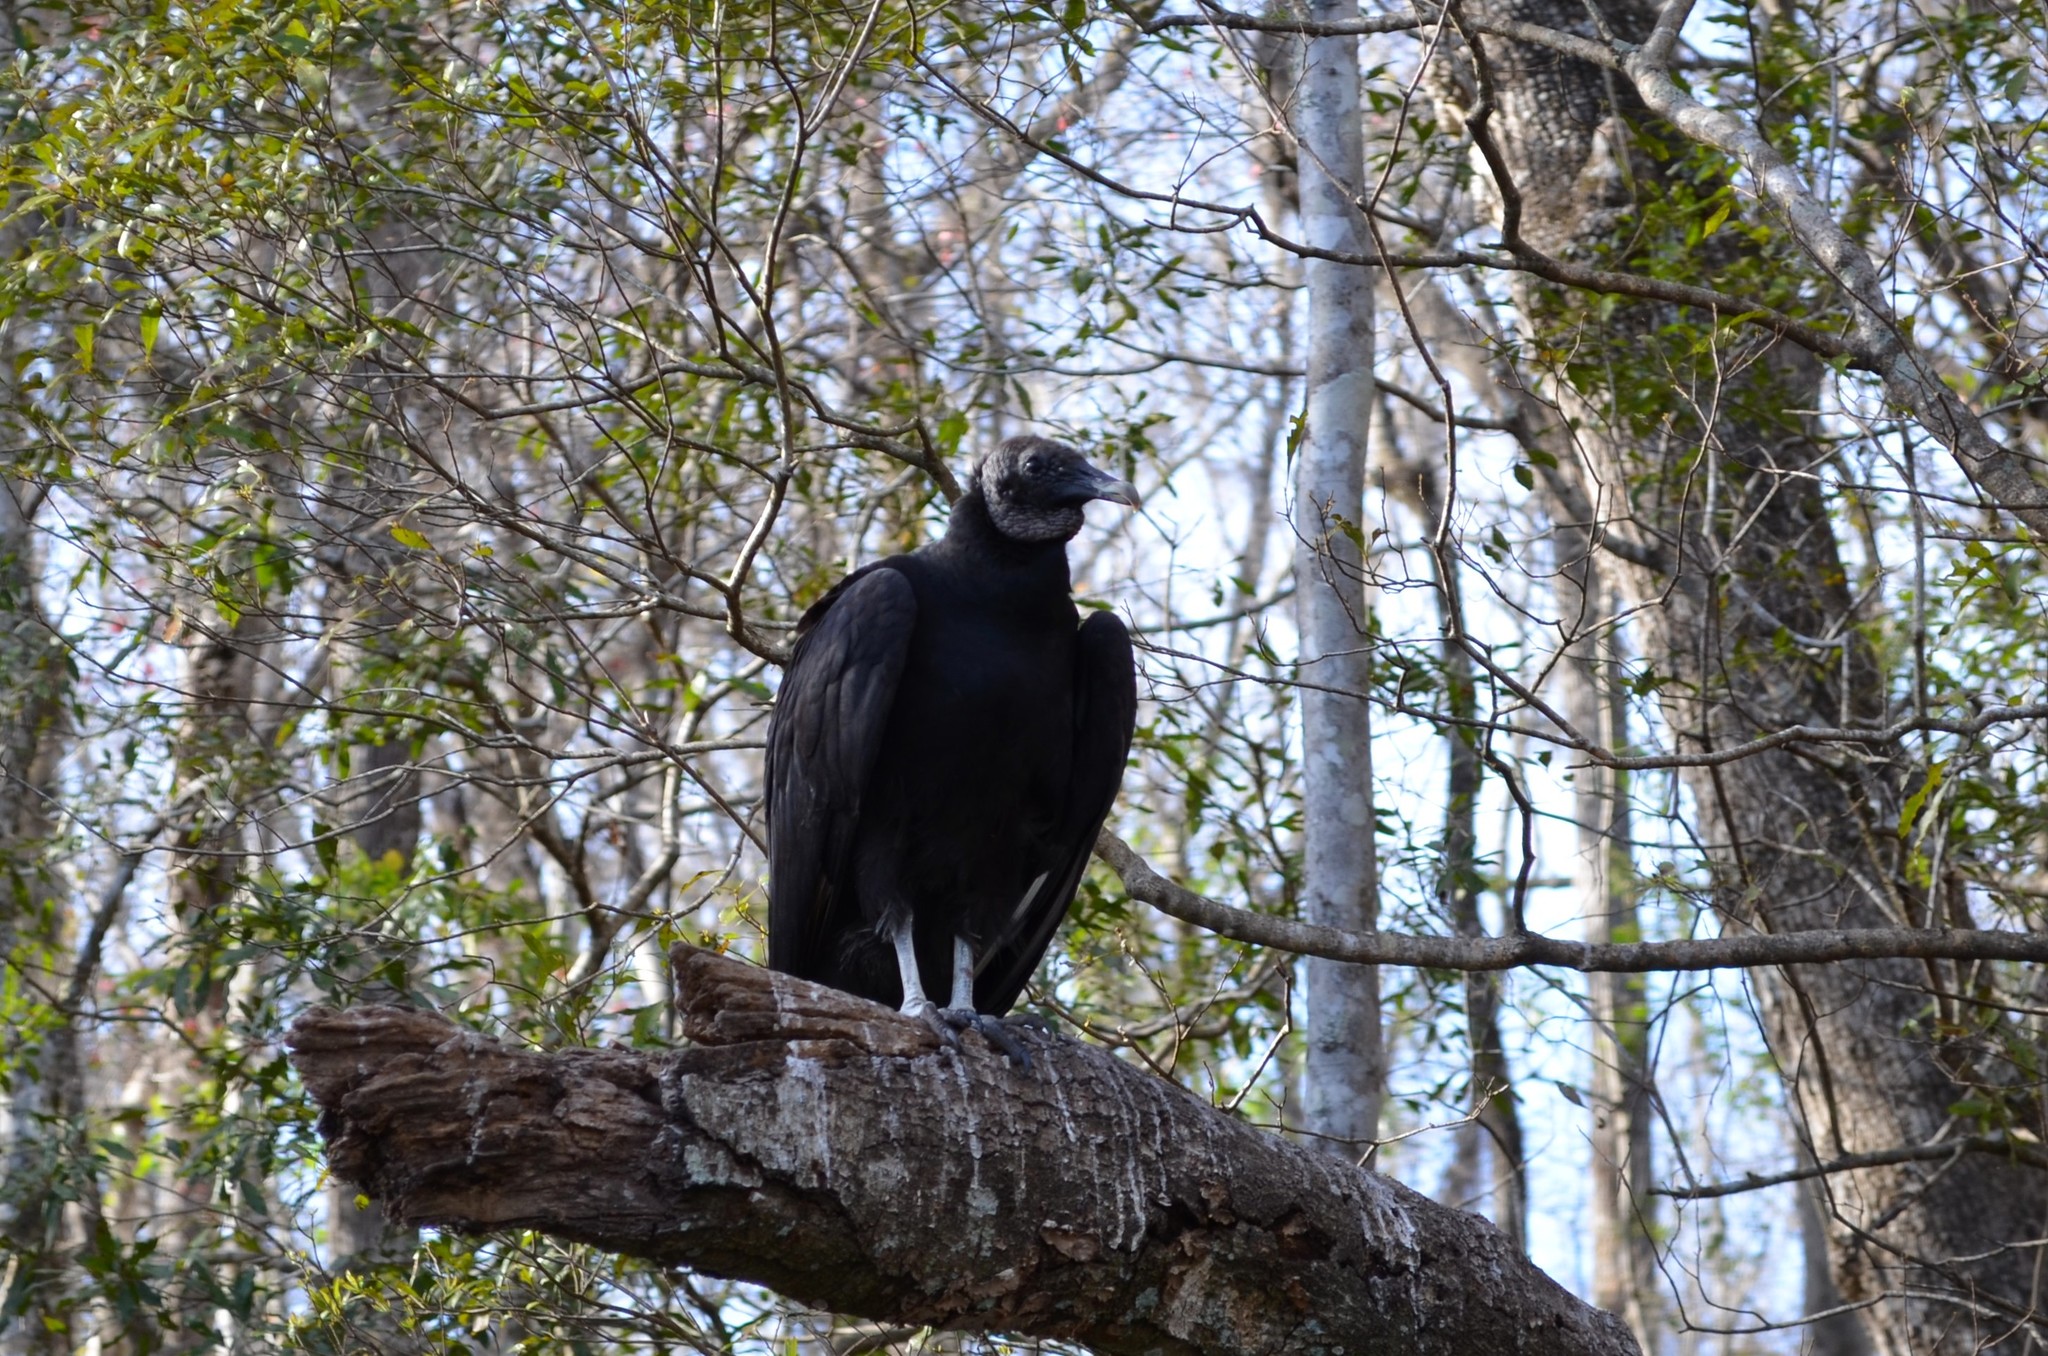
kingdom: Animalia
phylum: Chordata
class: Aves
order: Accipitriformes
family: Cathartidae
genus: Coragyps
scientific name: Coragyps atratus
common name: Black vulture
